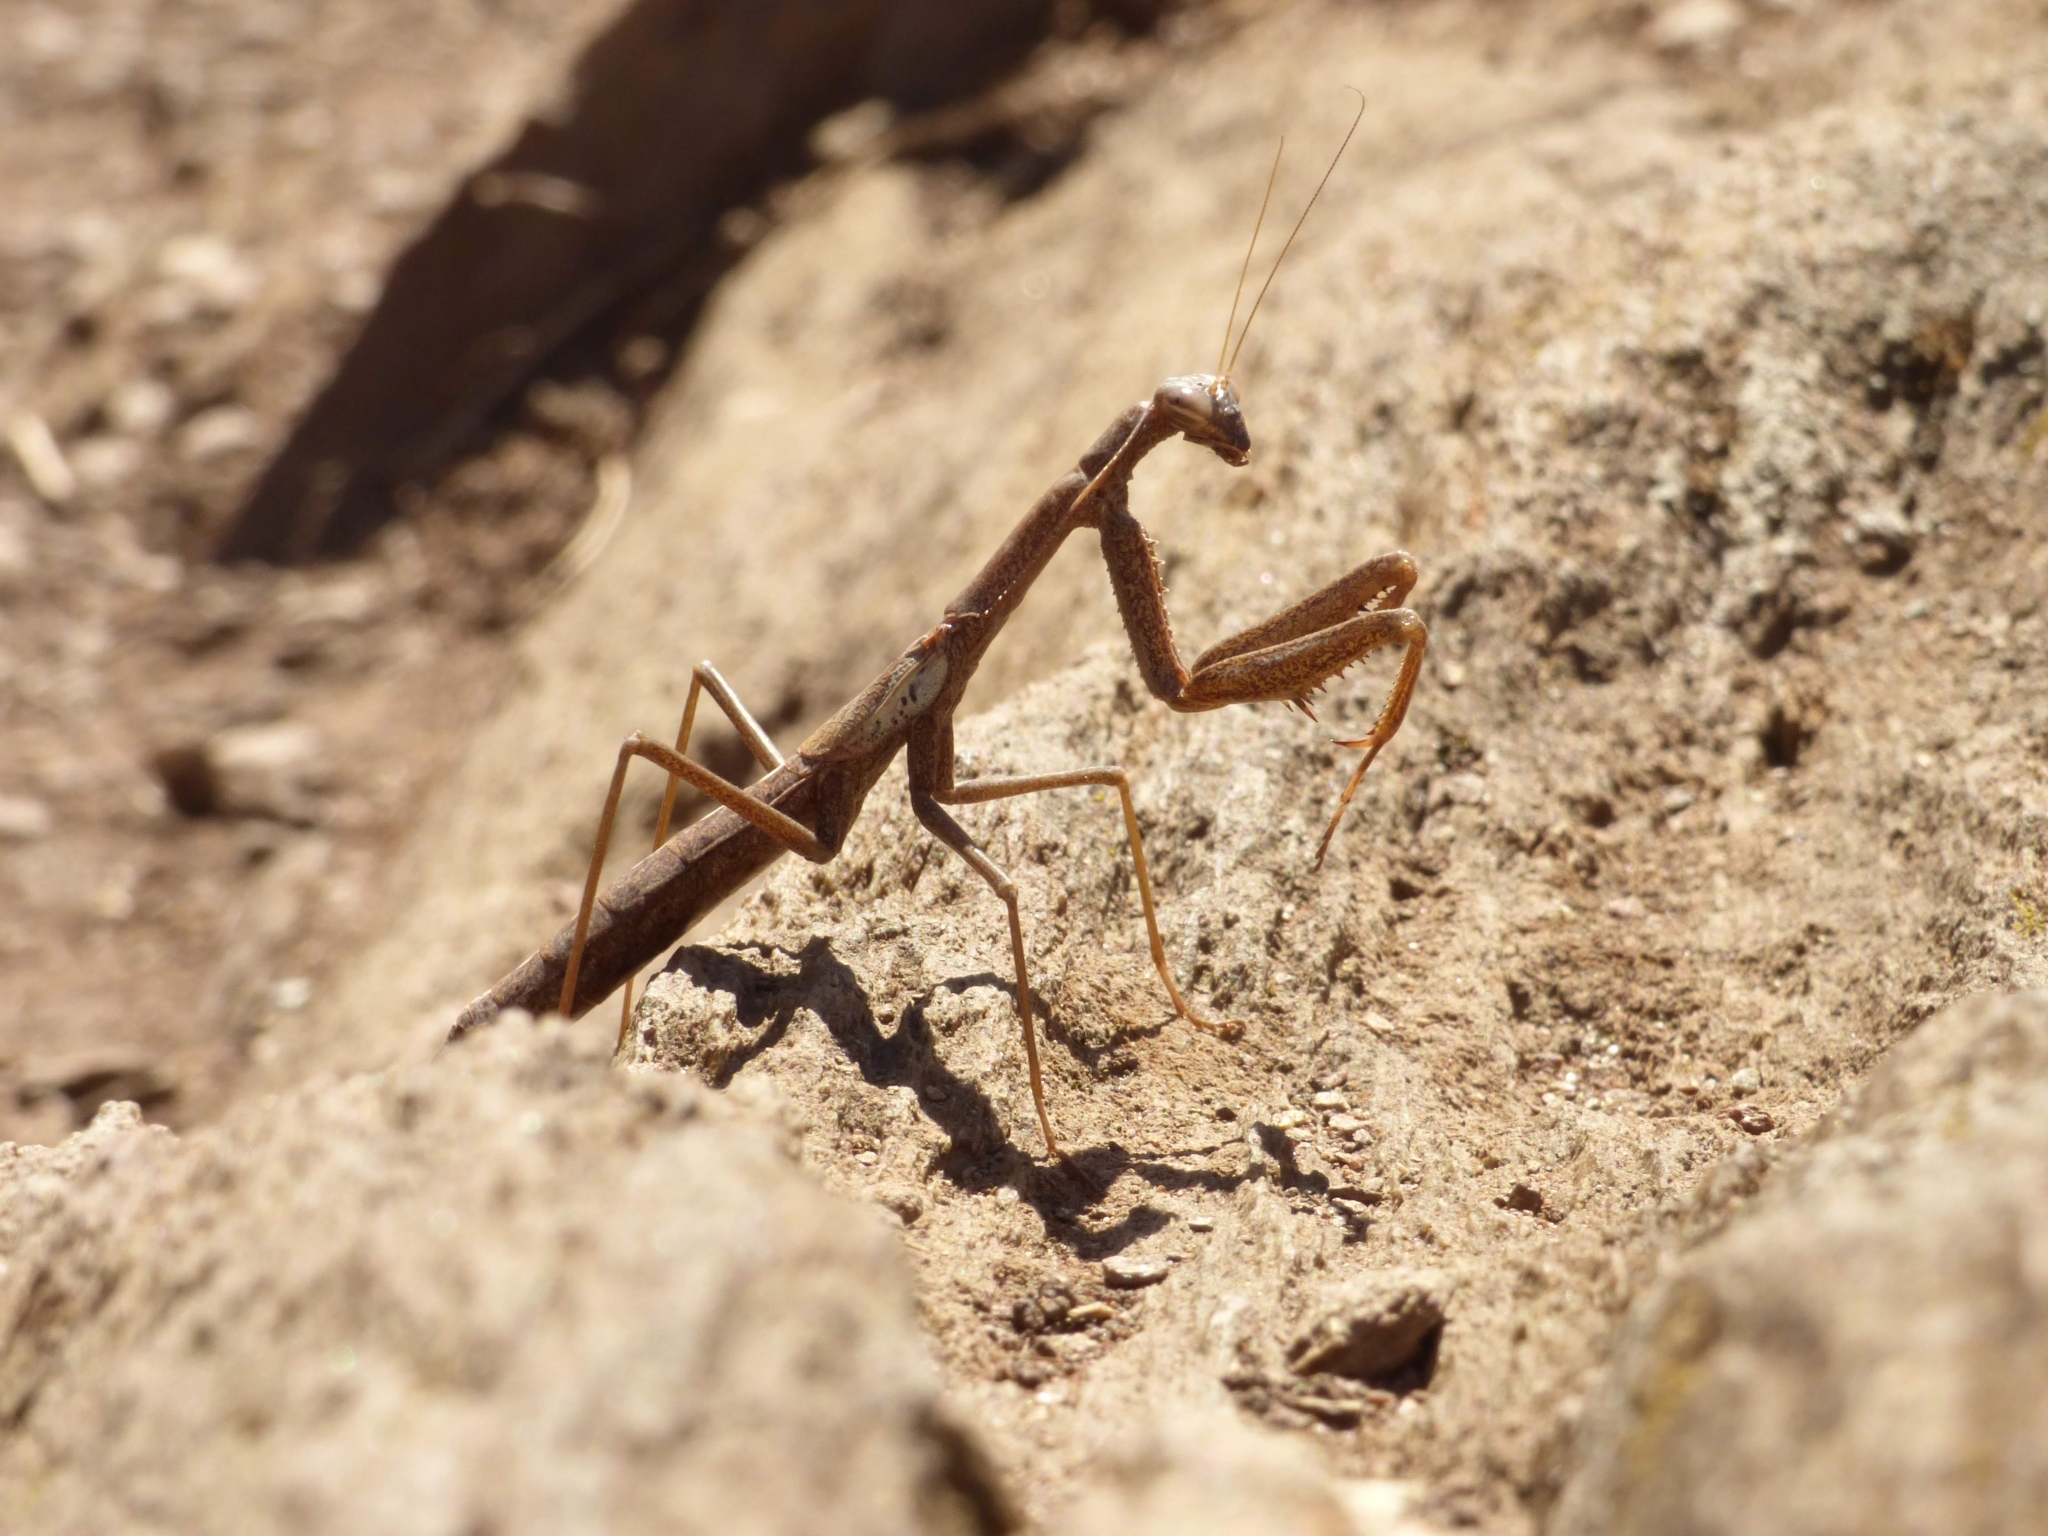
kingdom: Animalia
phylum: Arthropoda
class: Insecta
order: Mantodea
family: Coptopterygidae
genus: Coptopteryx
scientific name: Coptopteryx gayi
